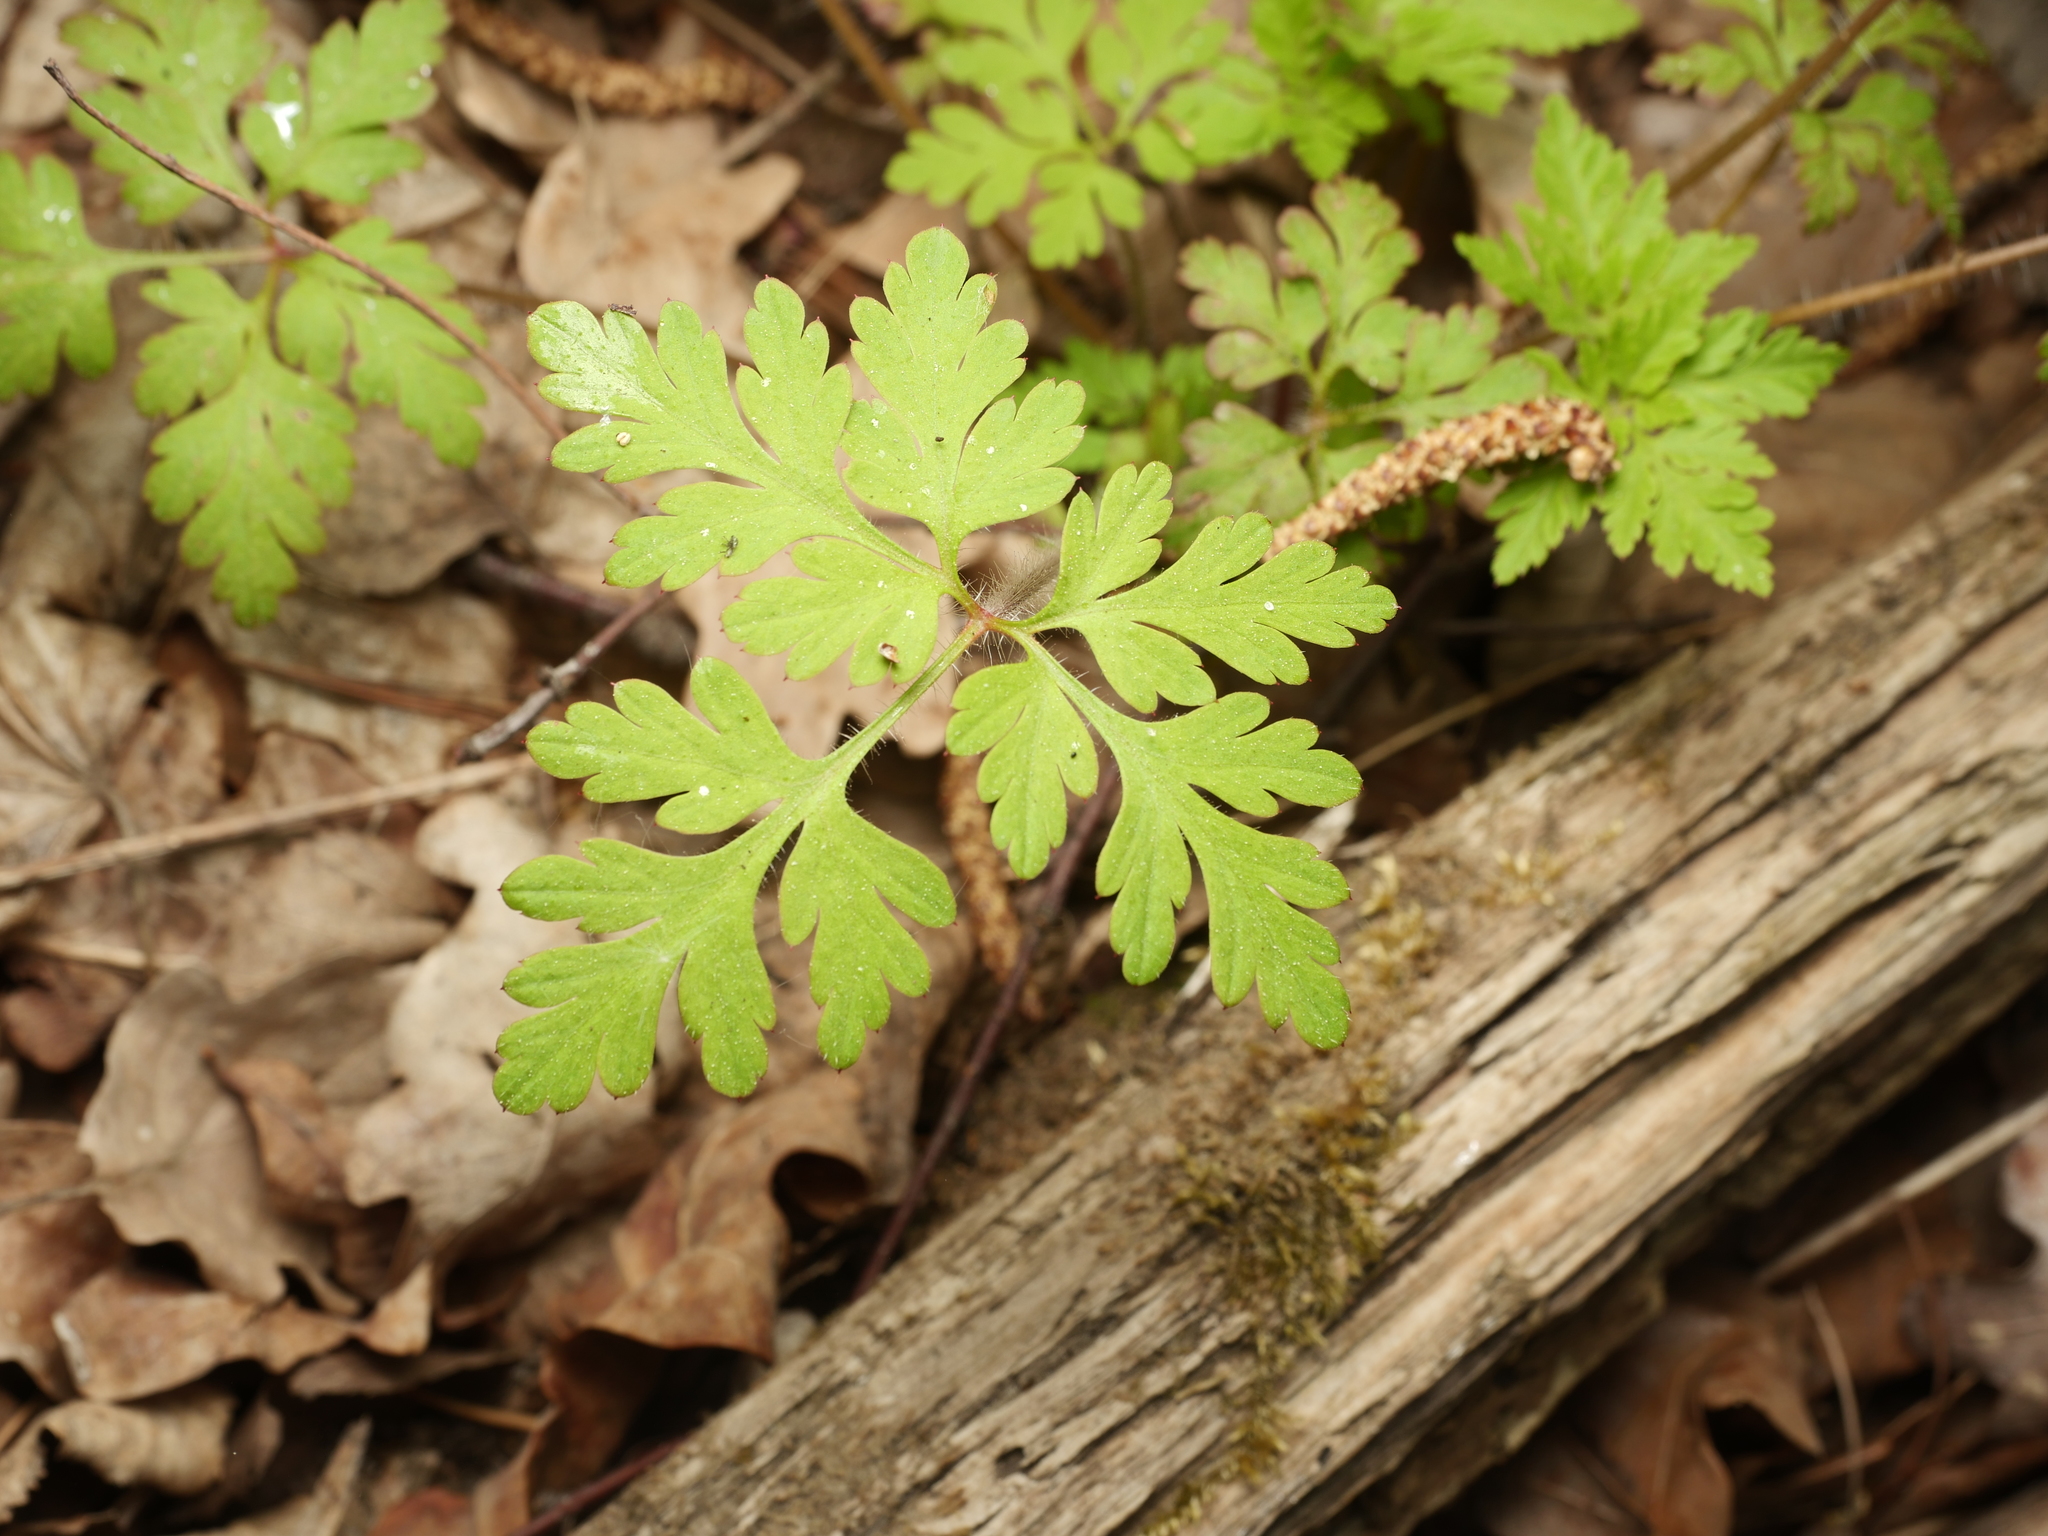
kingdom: Plantae
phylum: Tracheophyta
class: Magnoliopsida
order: Geraniales
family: Geraniaceae
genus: Geranium
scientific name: Geranium robertianum
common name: Herb-robert
